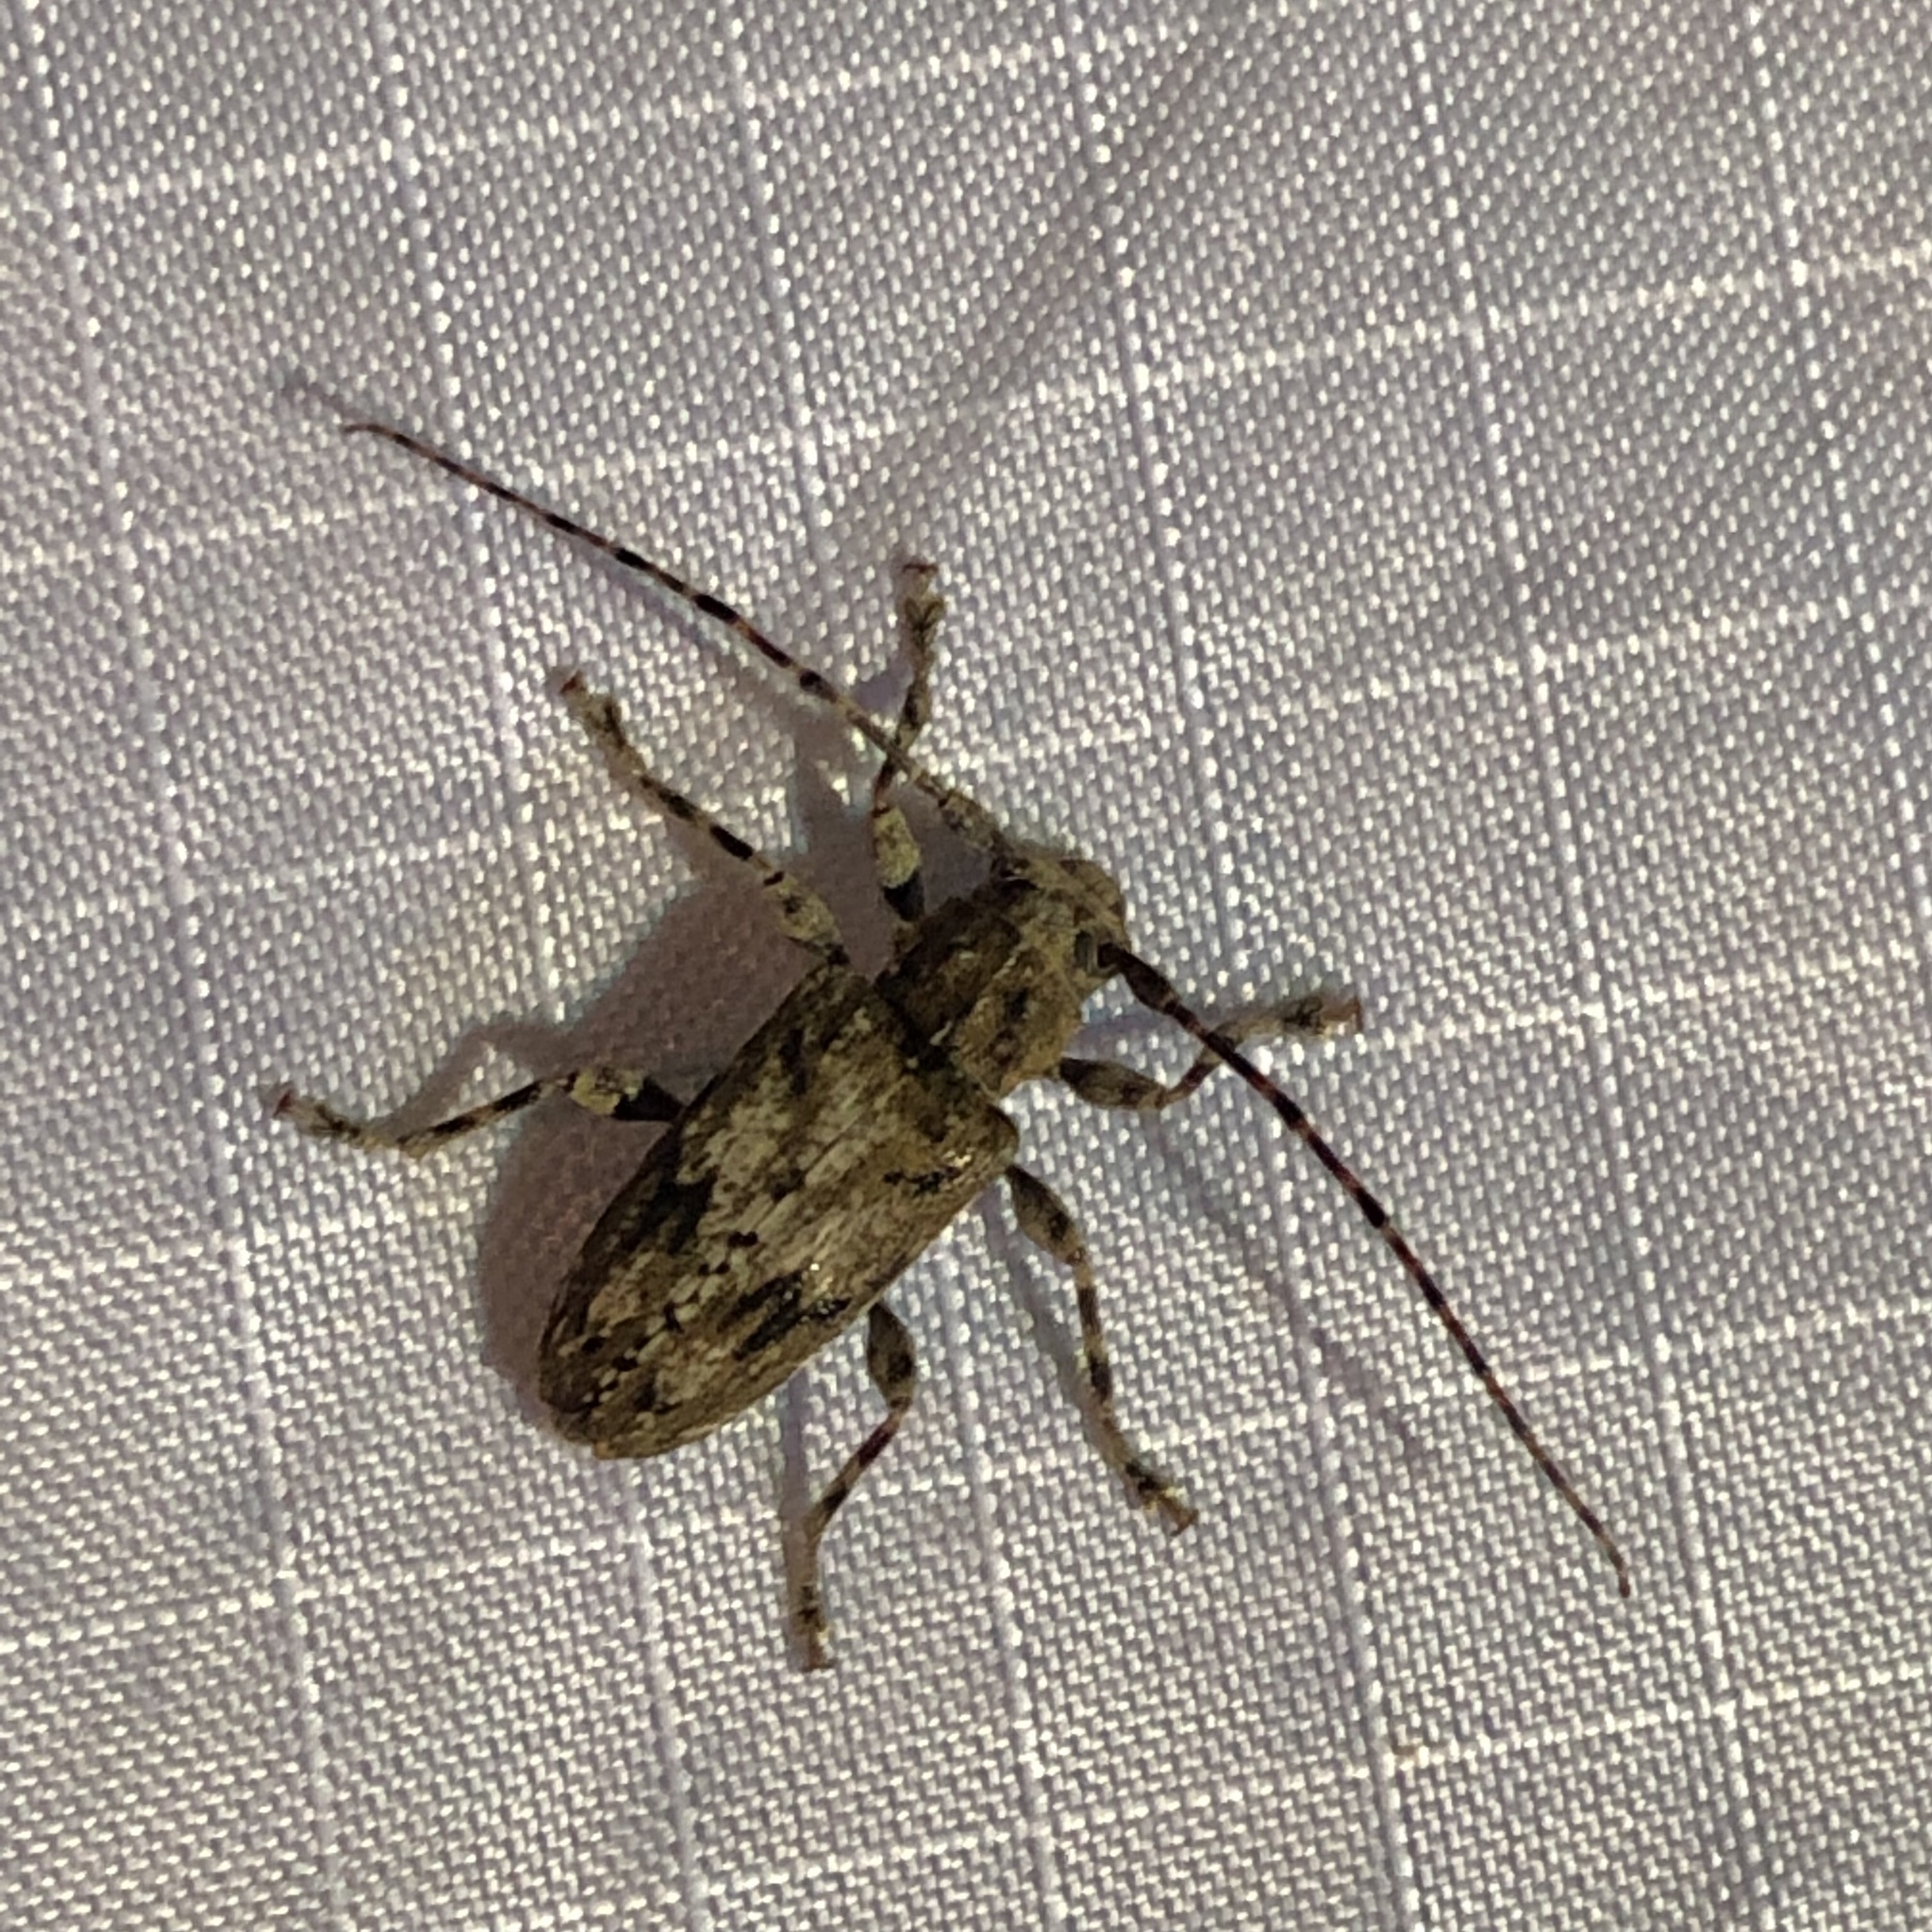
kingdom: Animalia
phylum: Arthropoda
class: Insecta
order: Coleoptera
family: Cerambycidae
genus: Aegomorphus
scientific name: Aegomorphus modestus
